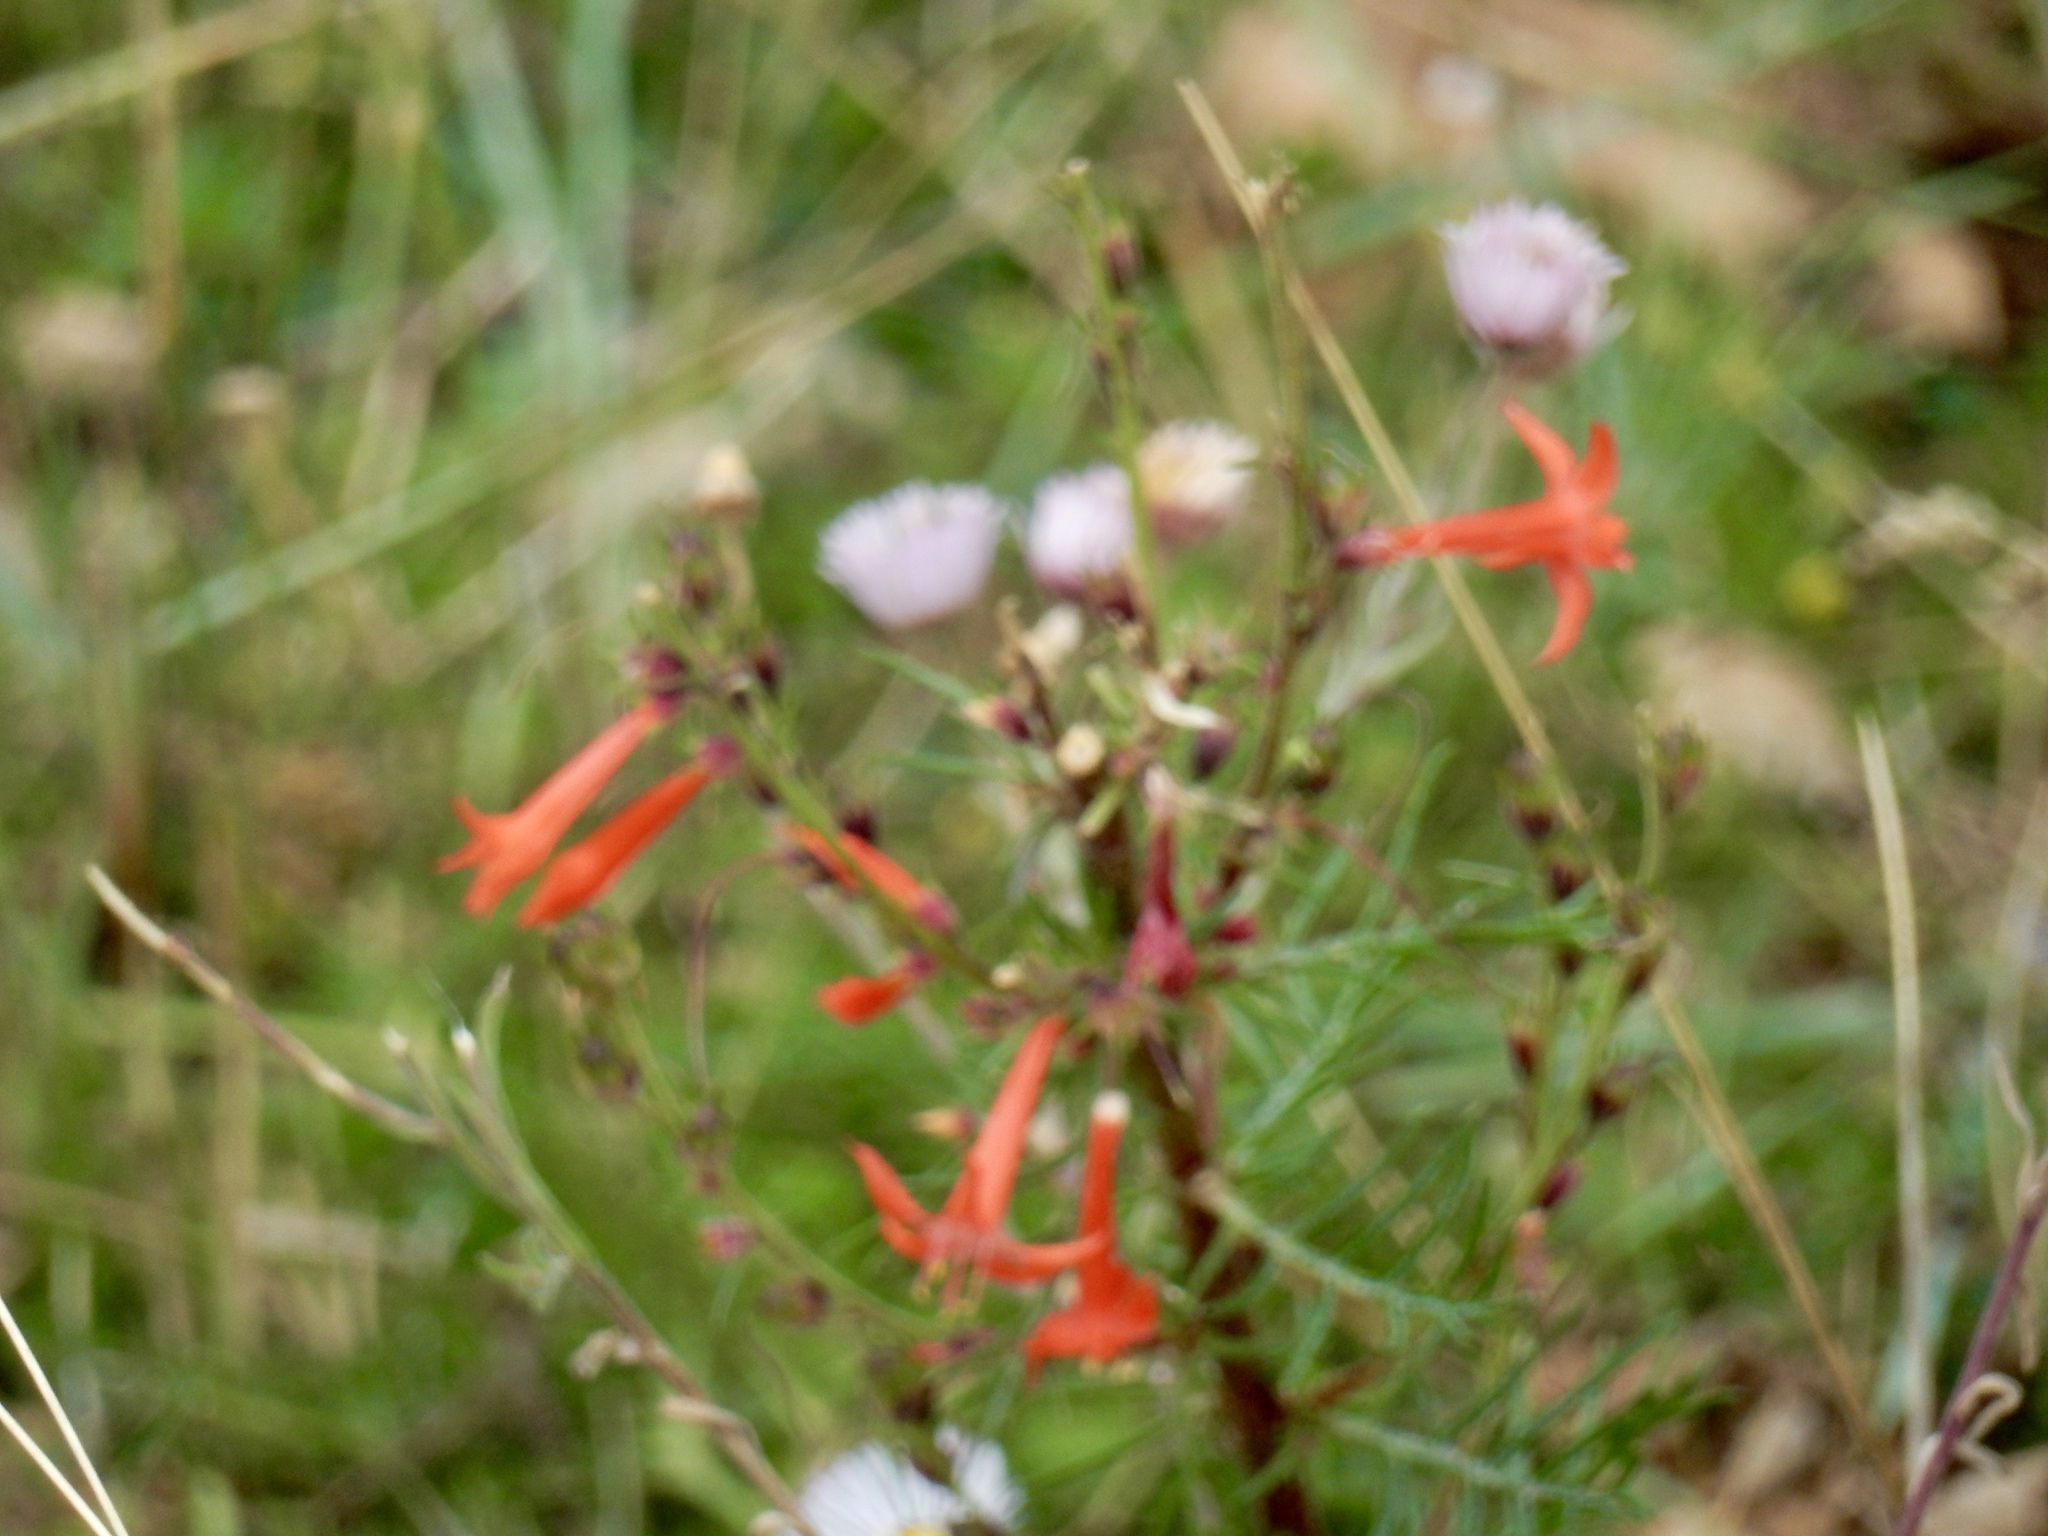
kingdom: Plantae
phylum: Tracheophyta
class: Magnoliopsida
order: Ericales
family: Polemoniaceae
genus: Ipomopsis
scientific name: Ipomopsis aggregata
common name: Scarlet gilia
